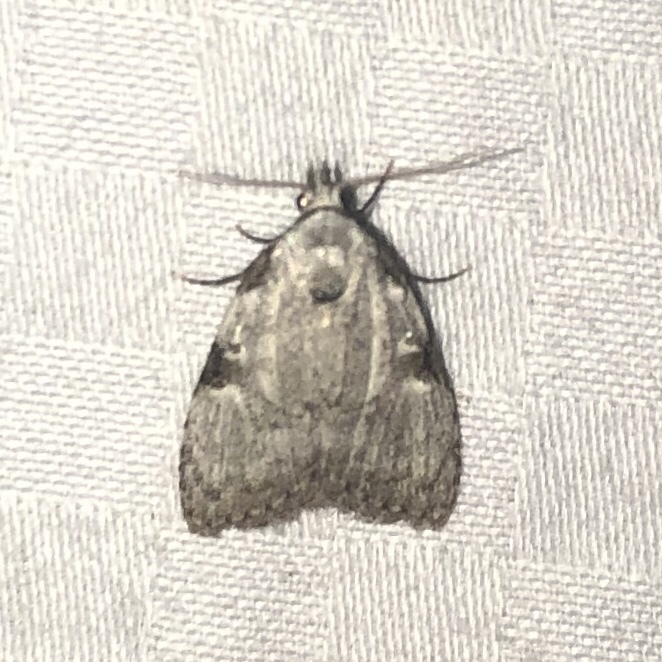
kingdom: Animalia
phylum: Arthropoda
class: Insecta
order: Lepidoptera
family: Nolidae
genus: Meganola
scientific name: Meganola minuscula
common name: Confused meganola moth
